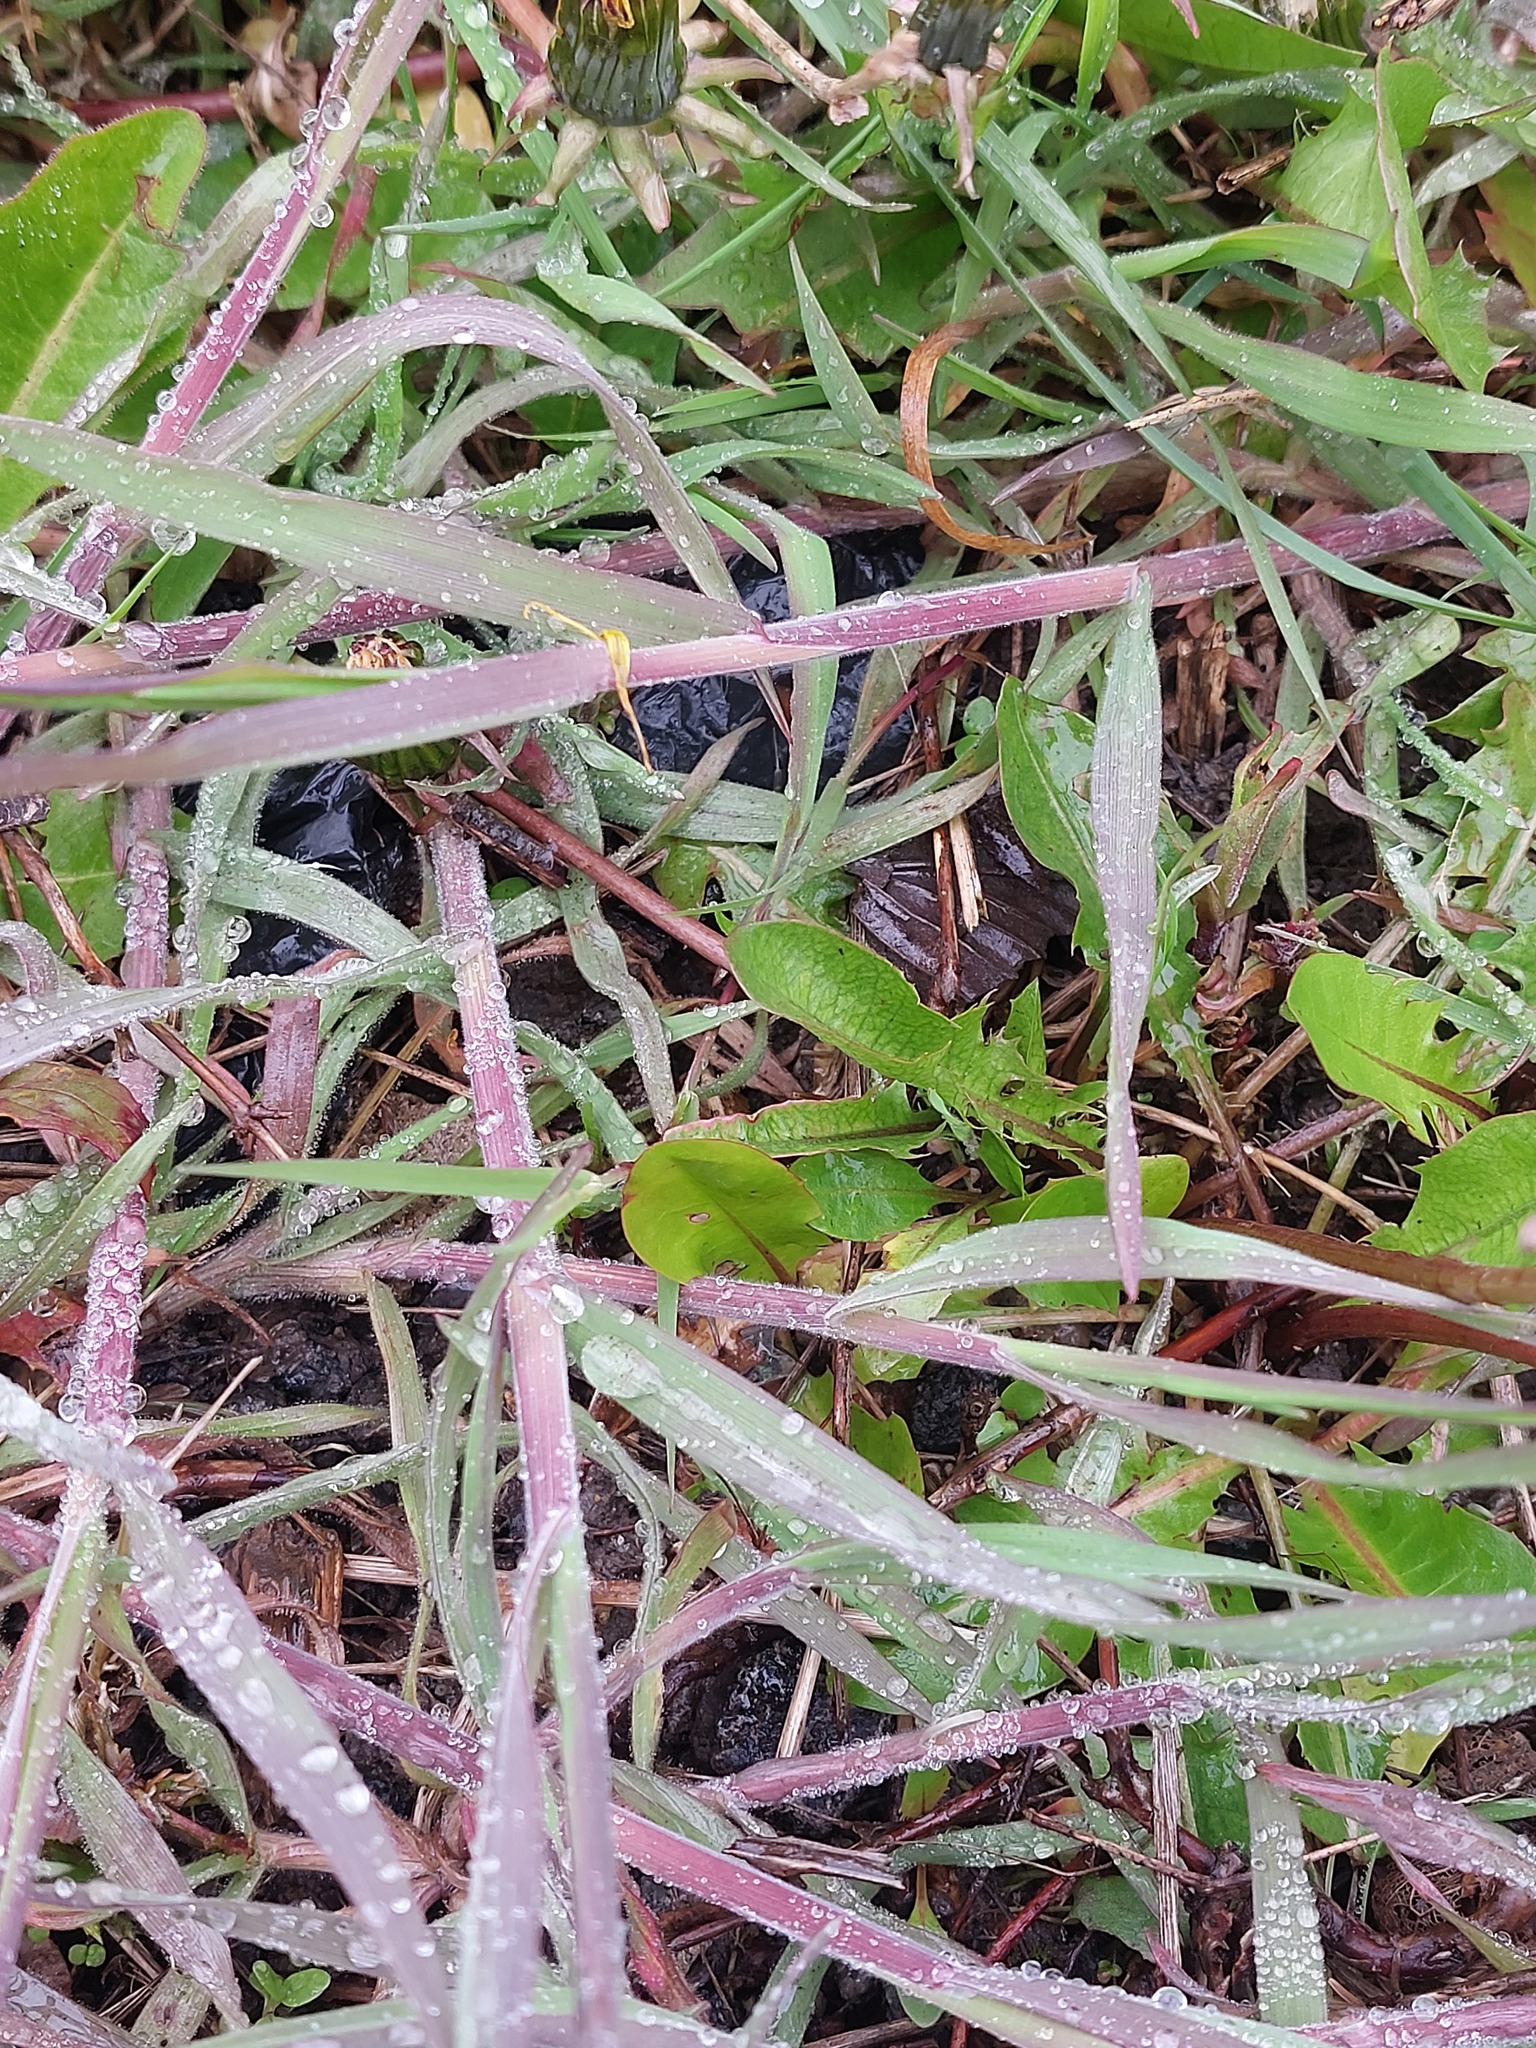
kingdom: Plantae
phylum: Tracheophyta
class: Liliopsida
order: Poales
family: Poaceae
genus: Holcus
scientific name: Holcus lanatus
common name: Yorkshire-fog
